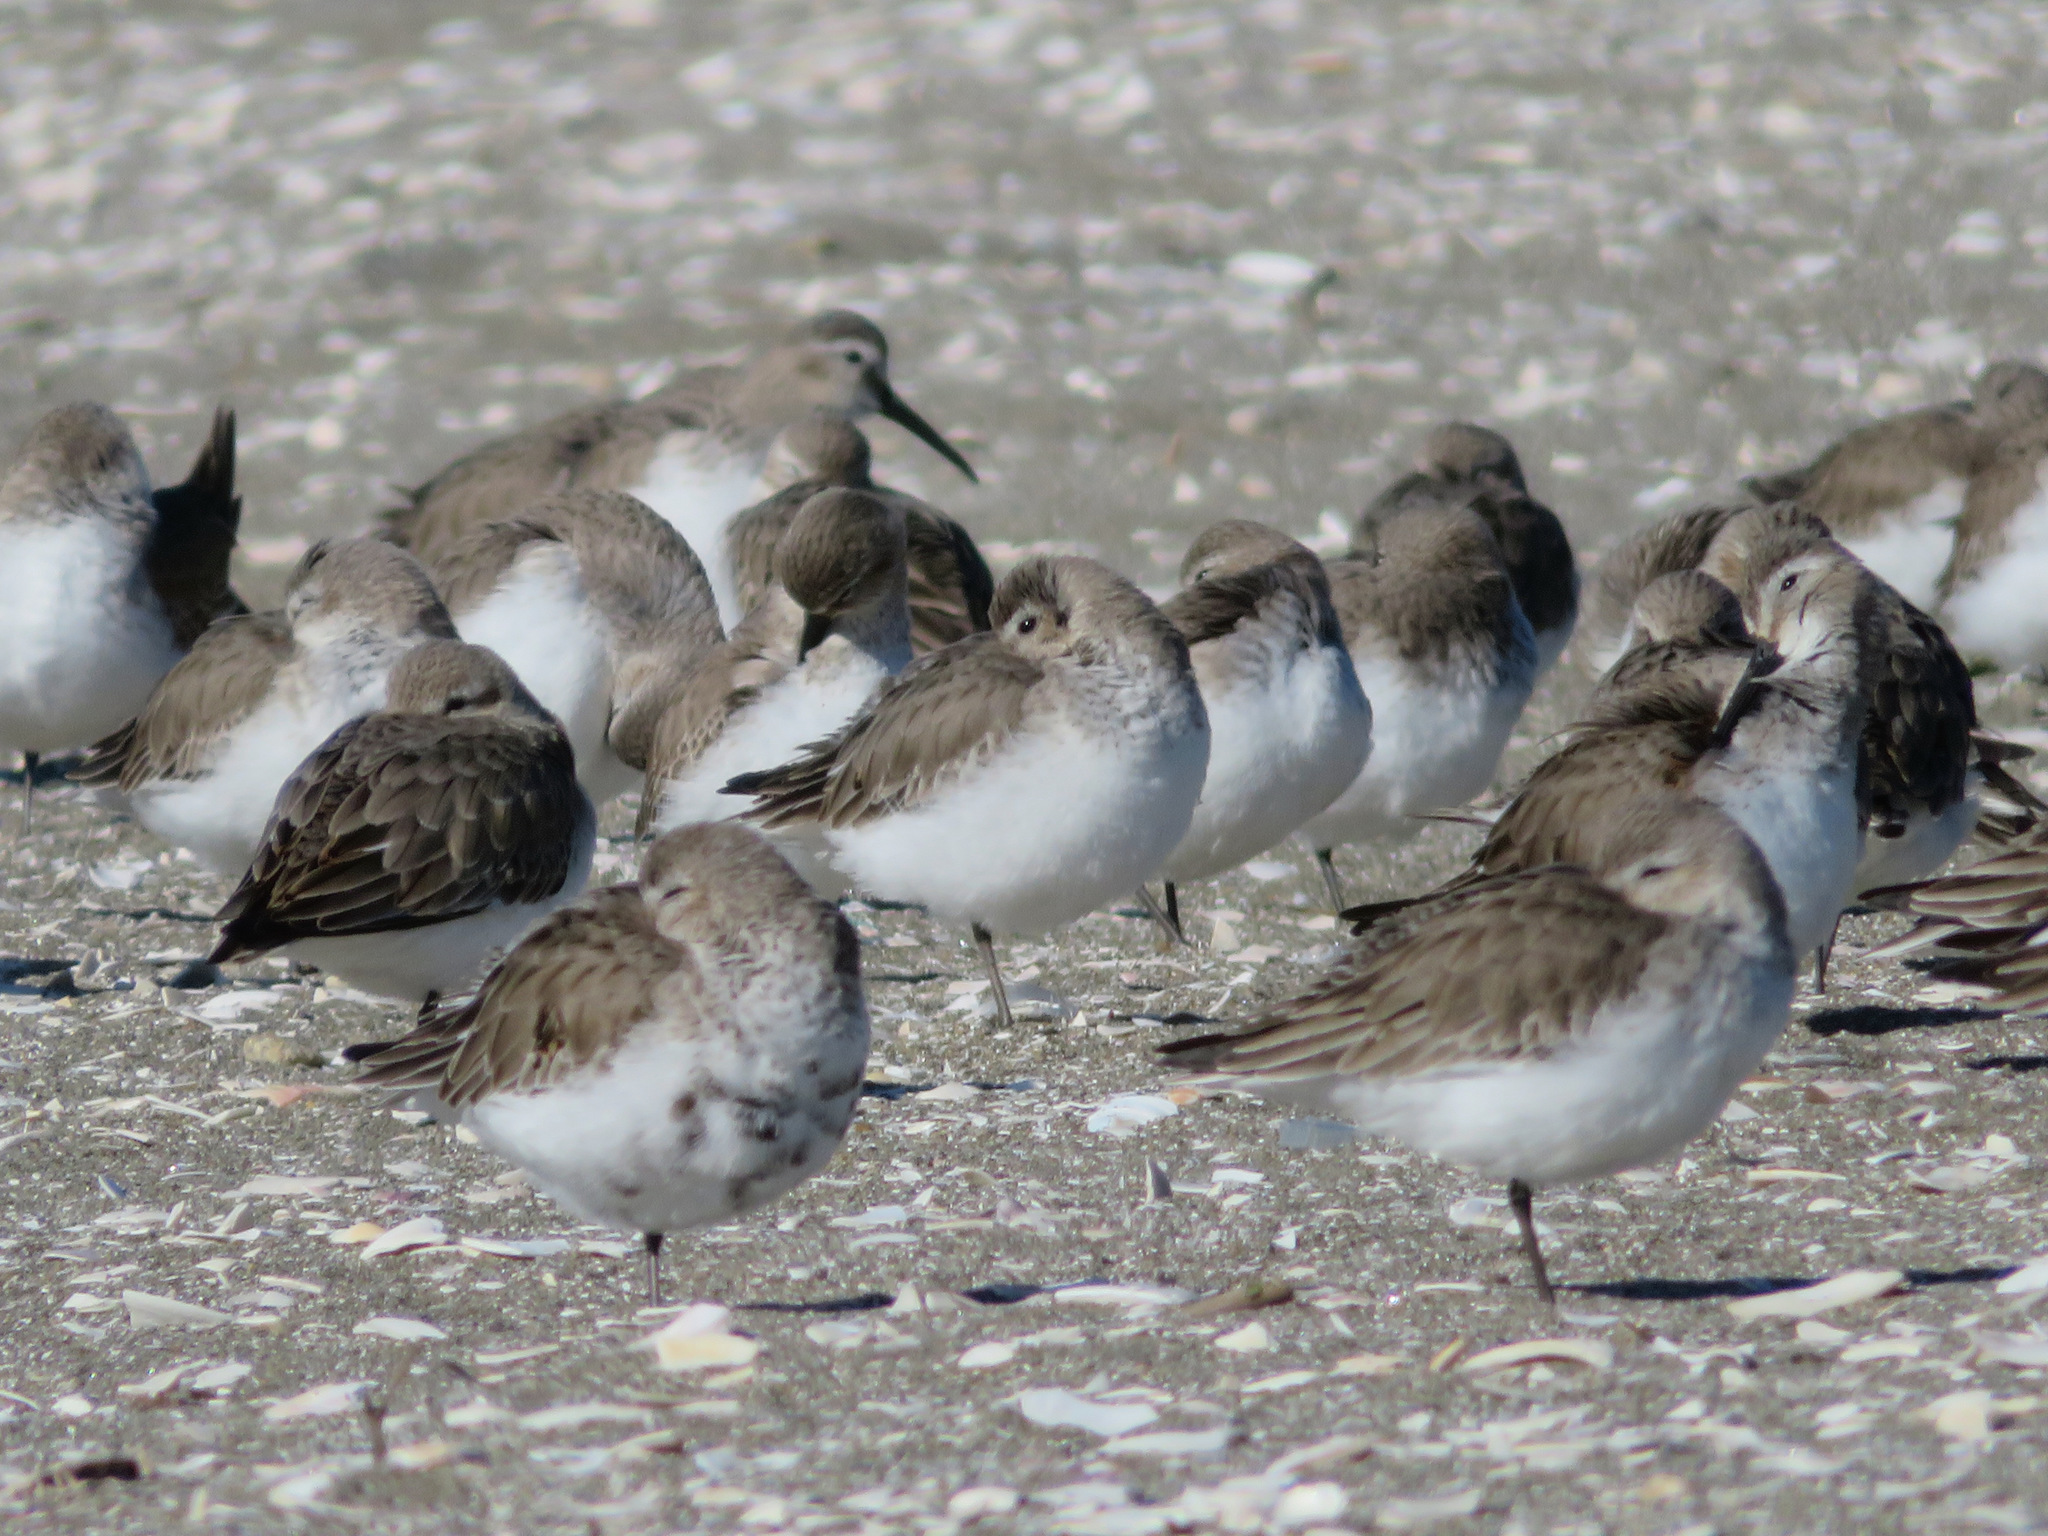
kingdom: Animalia
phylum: Chordata
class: Aves
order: Charadriiformes
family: Scolopacidae
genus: Calidris
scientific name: Calidris alpina
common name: Dunlin
